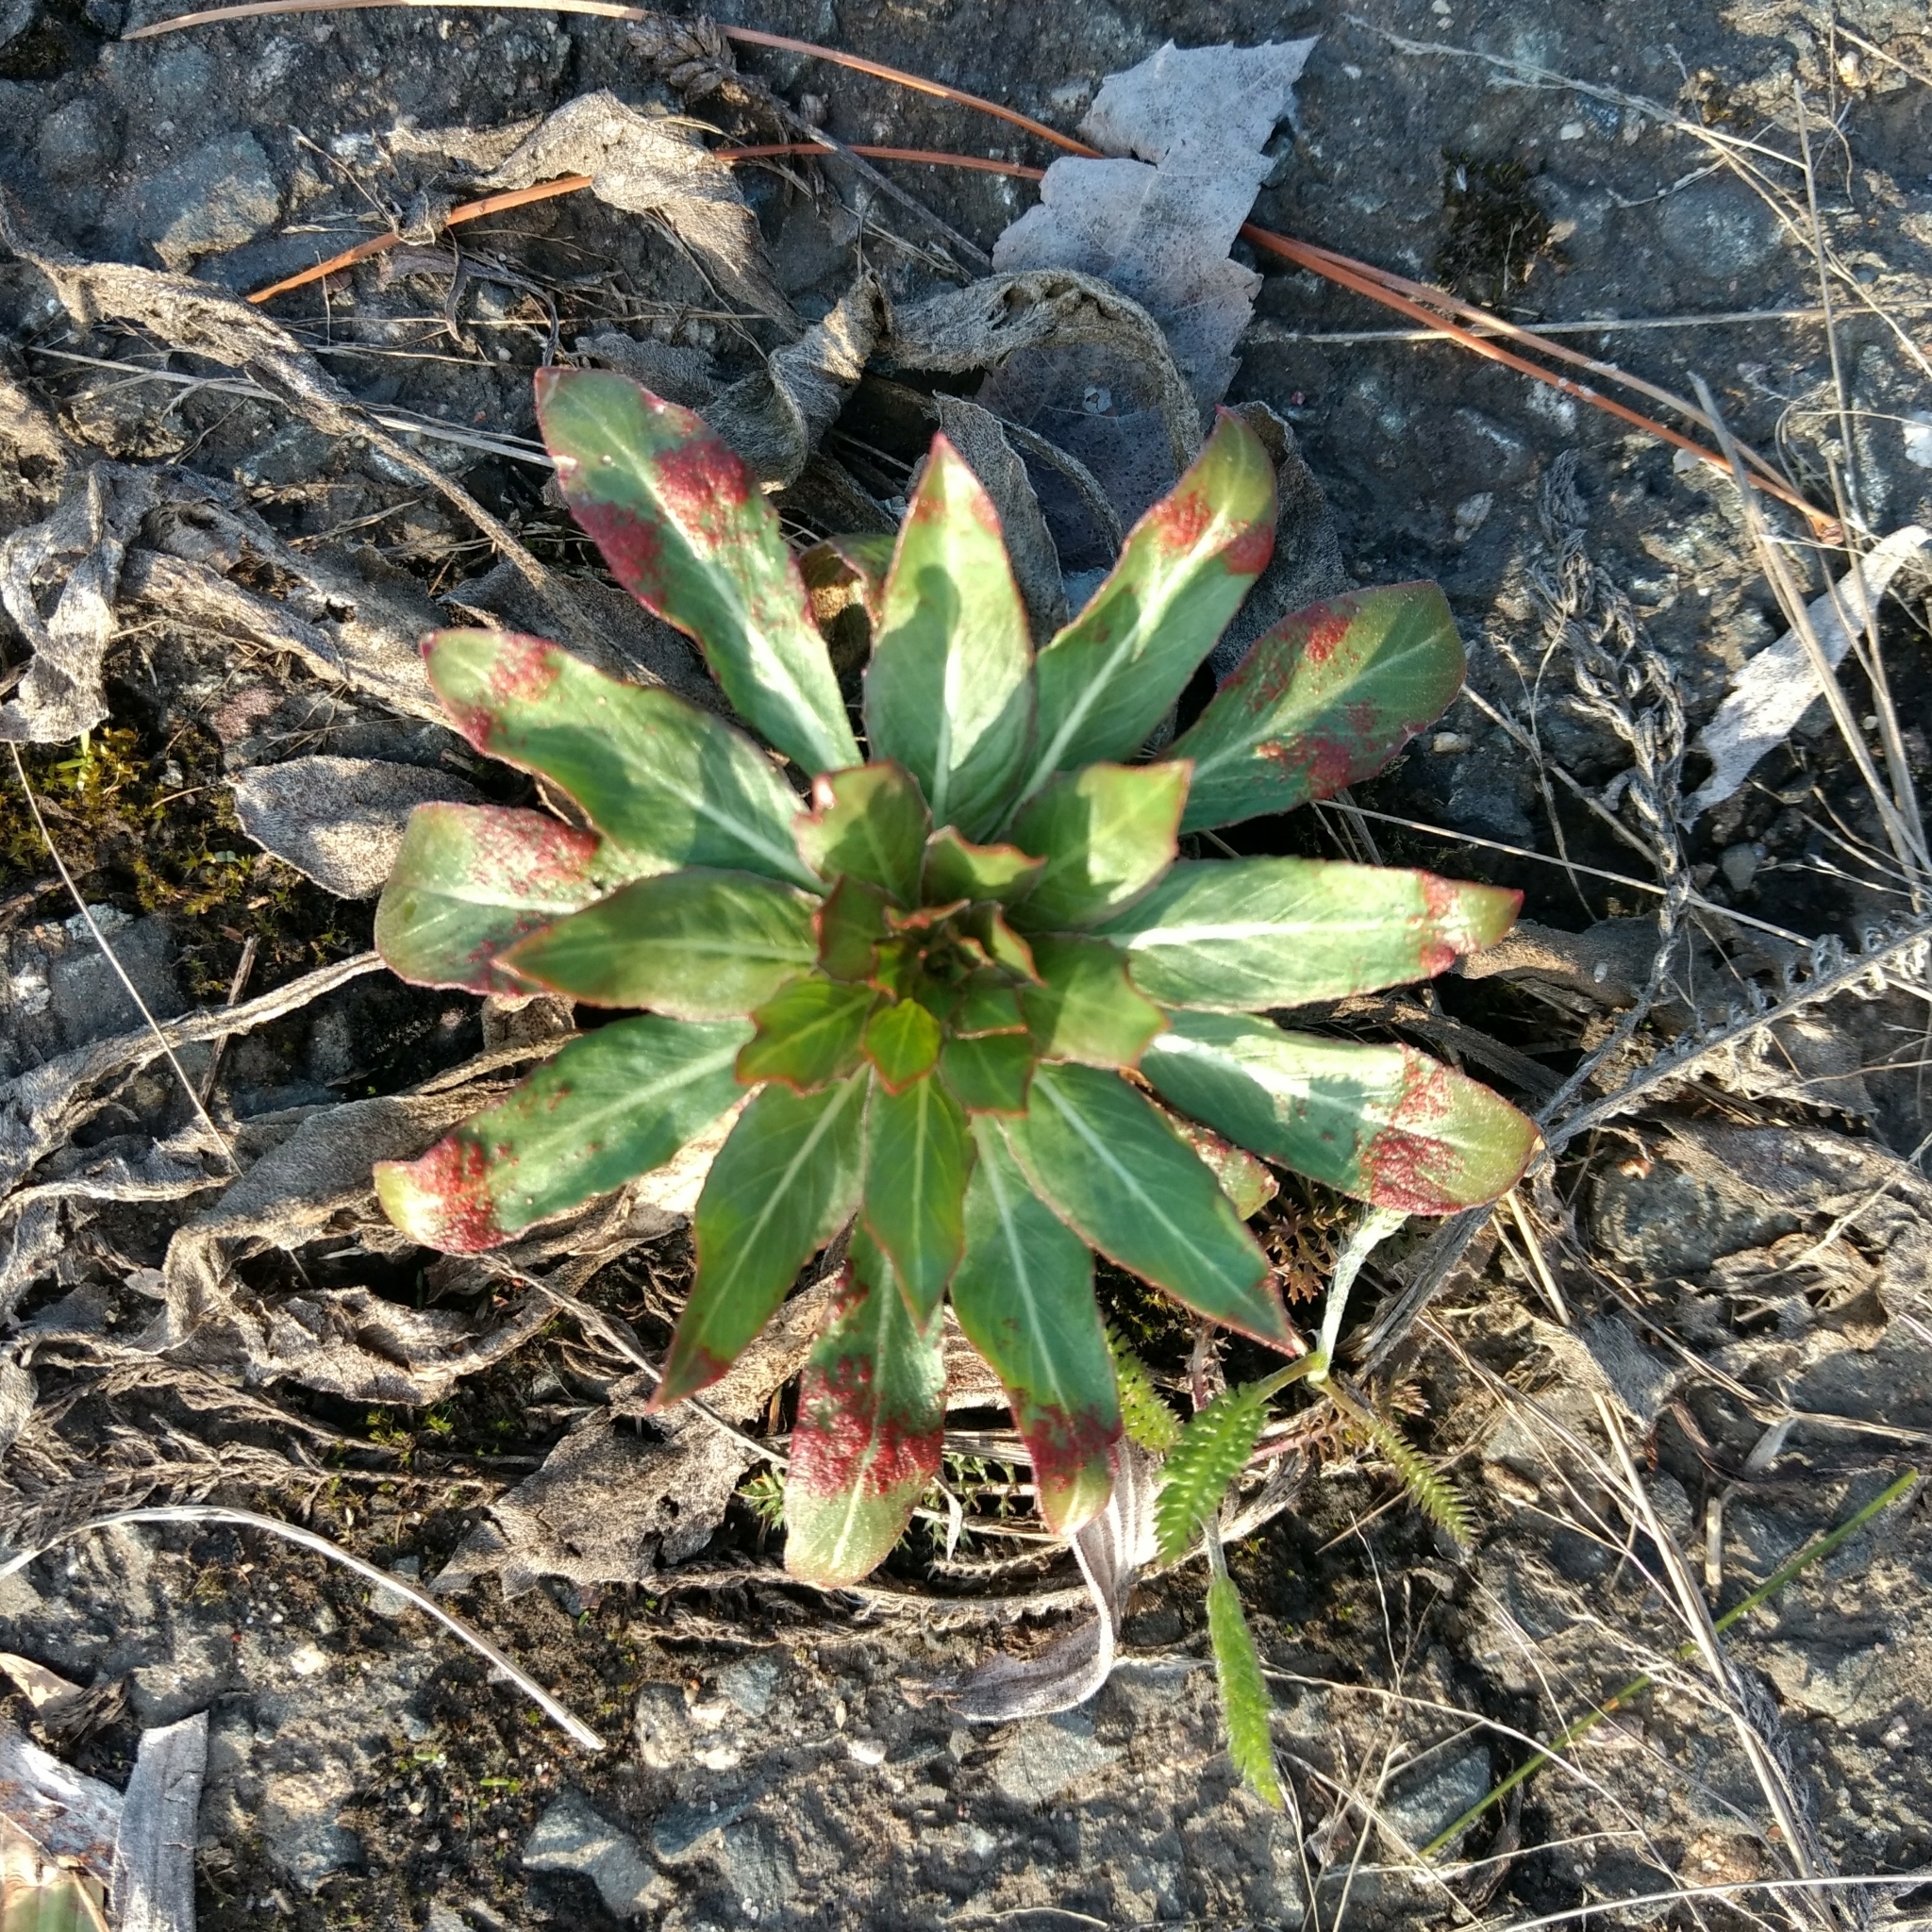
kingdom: Plantae
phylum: Tracheophyta
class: Magnoliopsida
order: Myrtales
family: Onagraceae
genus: Oenothera
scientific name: Oenothera biennis
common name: Common evening-primrose
